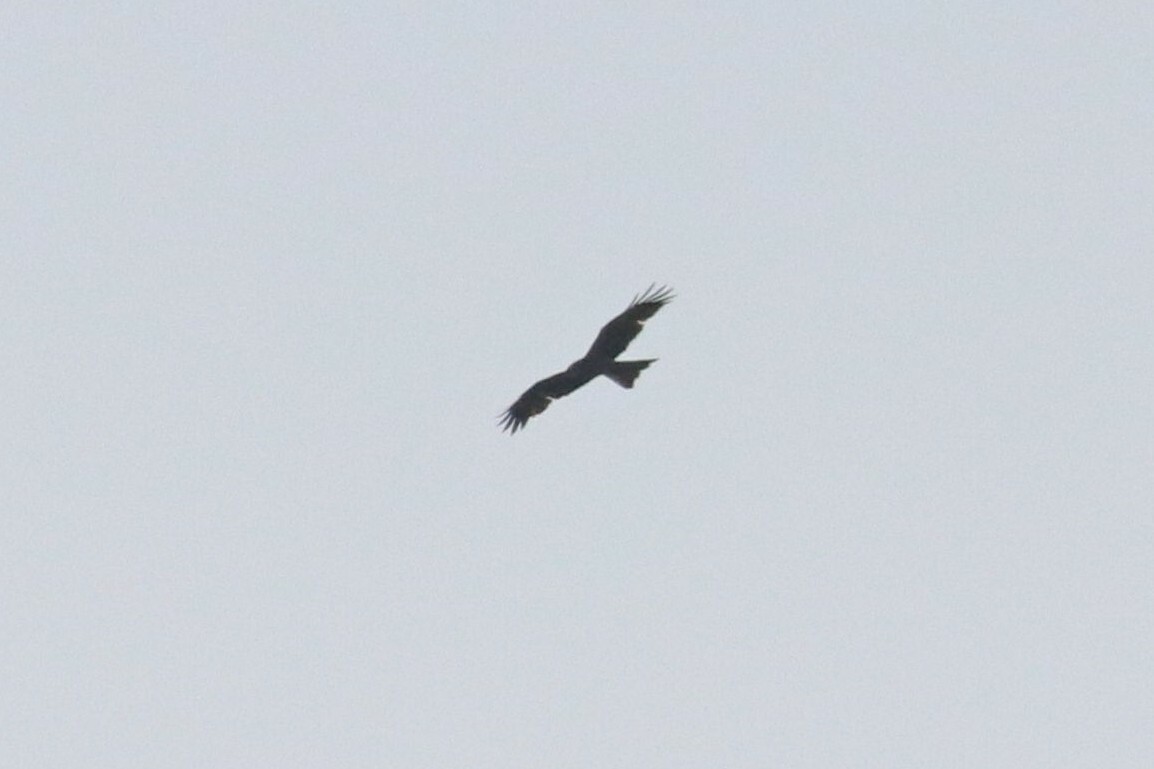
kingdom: Animalia
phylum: Chordata
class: Aves
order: Accipitriformes
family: Accipitridae
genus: Milvus
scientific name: Milvus migrans
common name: Black kite
